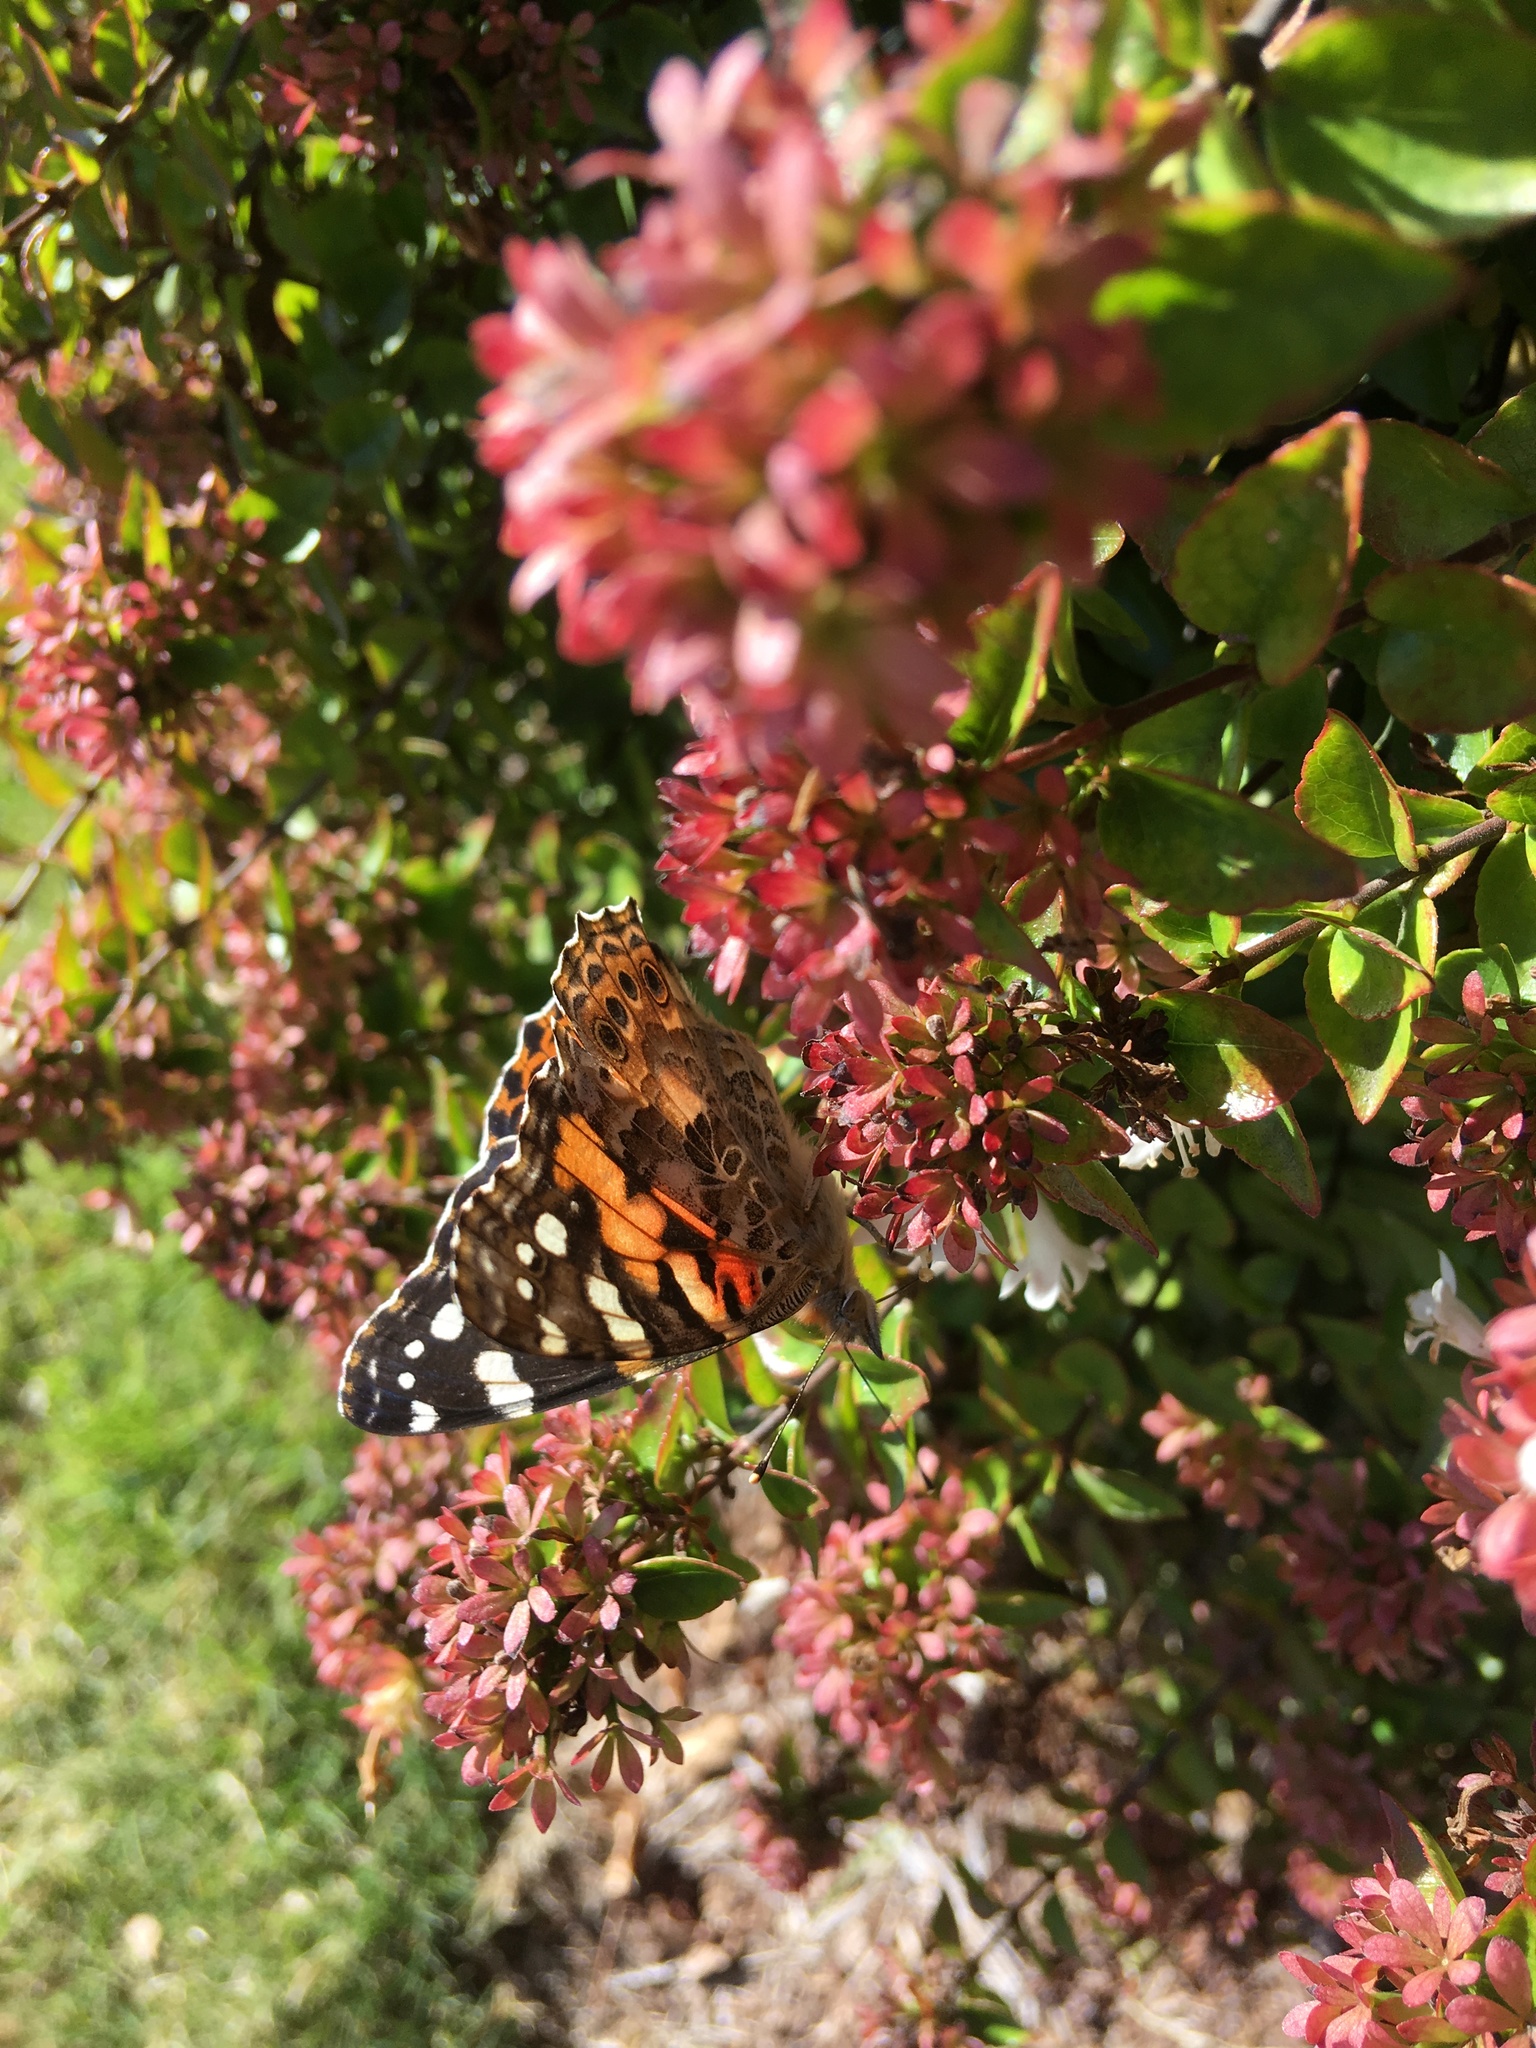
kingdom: Animalia
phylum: Arthropoda
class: Insecta
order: Lepidoptera
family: Nymphalidae
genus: Vanessa
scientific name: Vanessa cardui
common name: Painted lady
